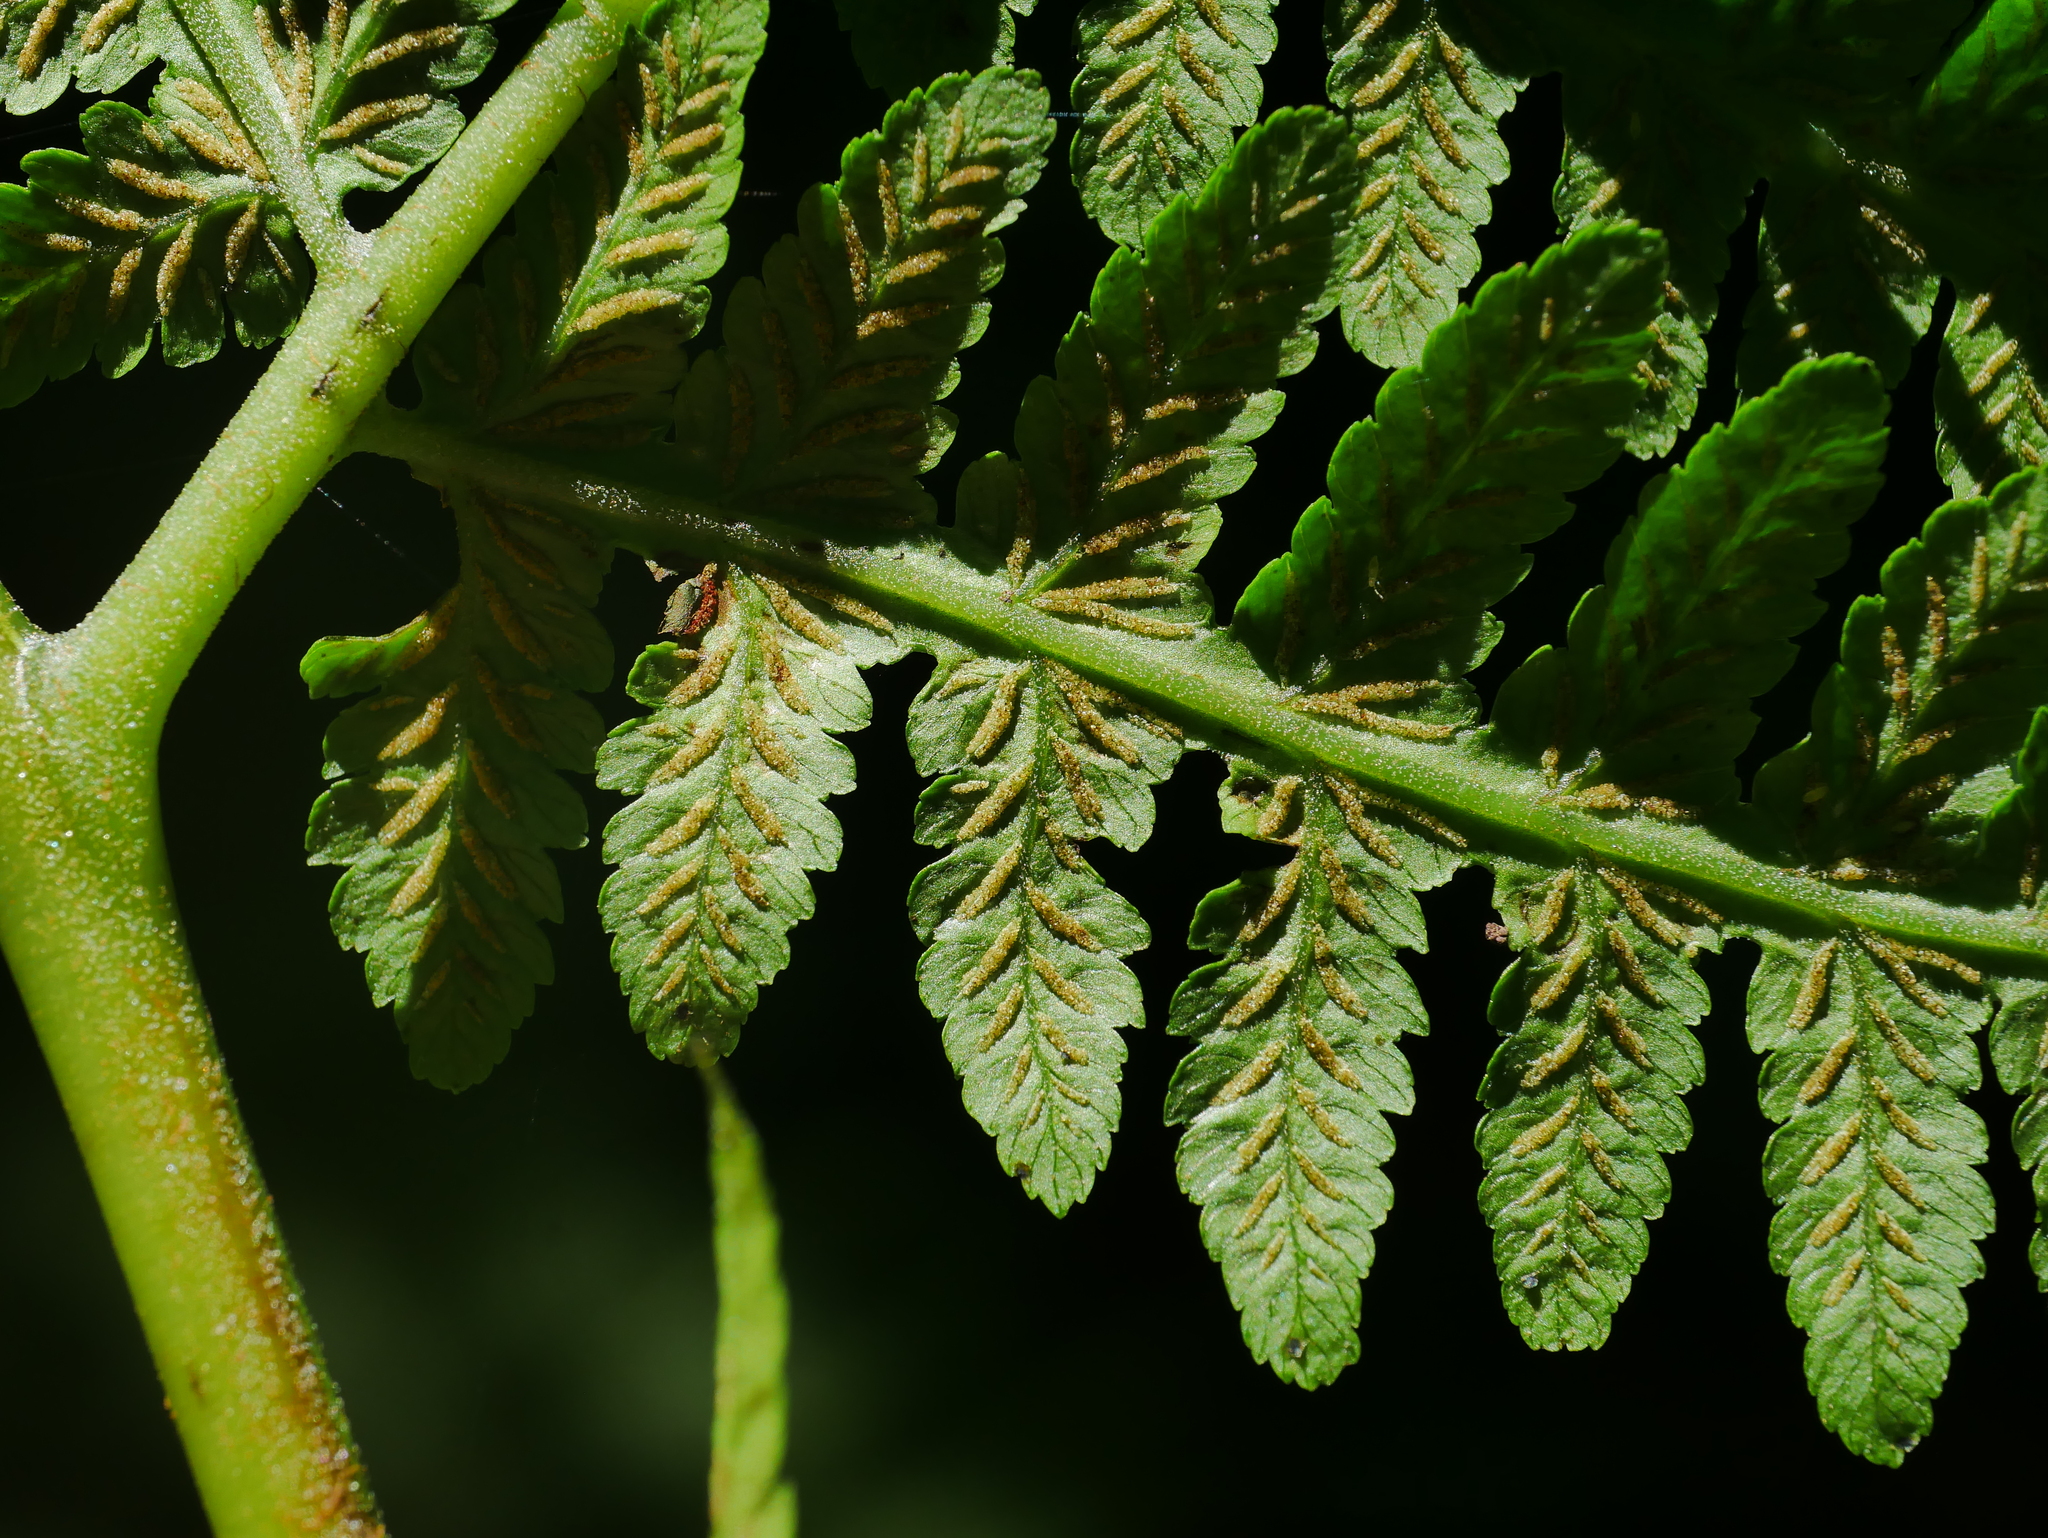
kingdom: Plantae
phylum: Tracheophyta
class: Polypodiopsida
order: Polypodiales
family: Athyriaceae
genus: Diplazium
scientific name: Diplazium maximum
